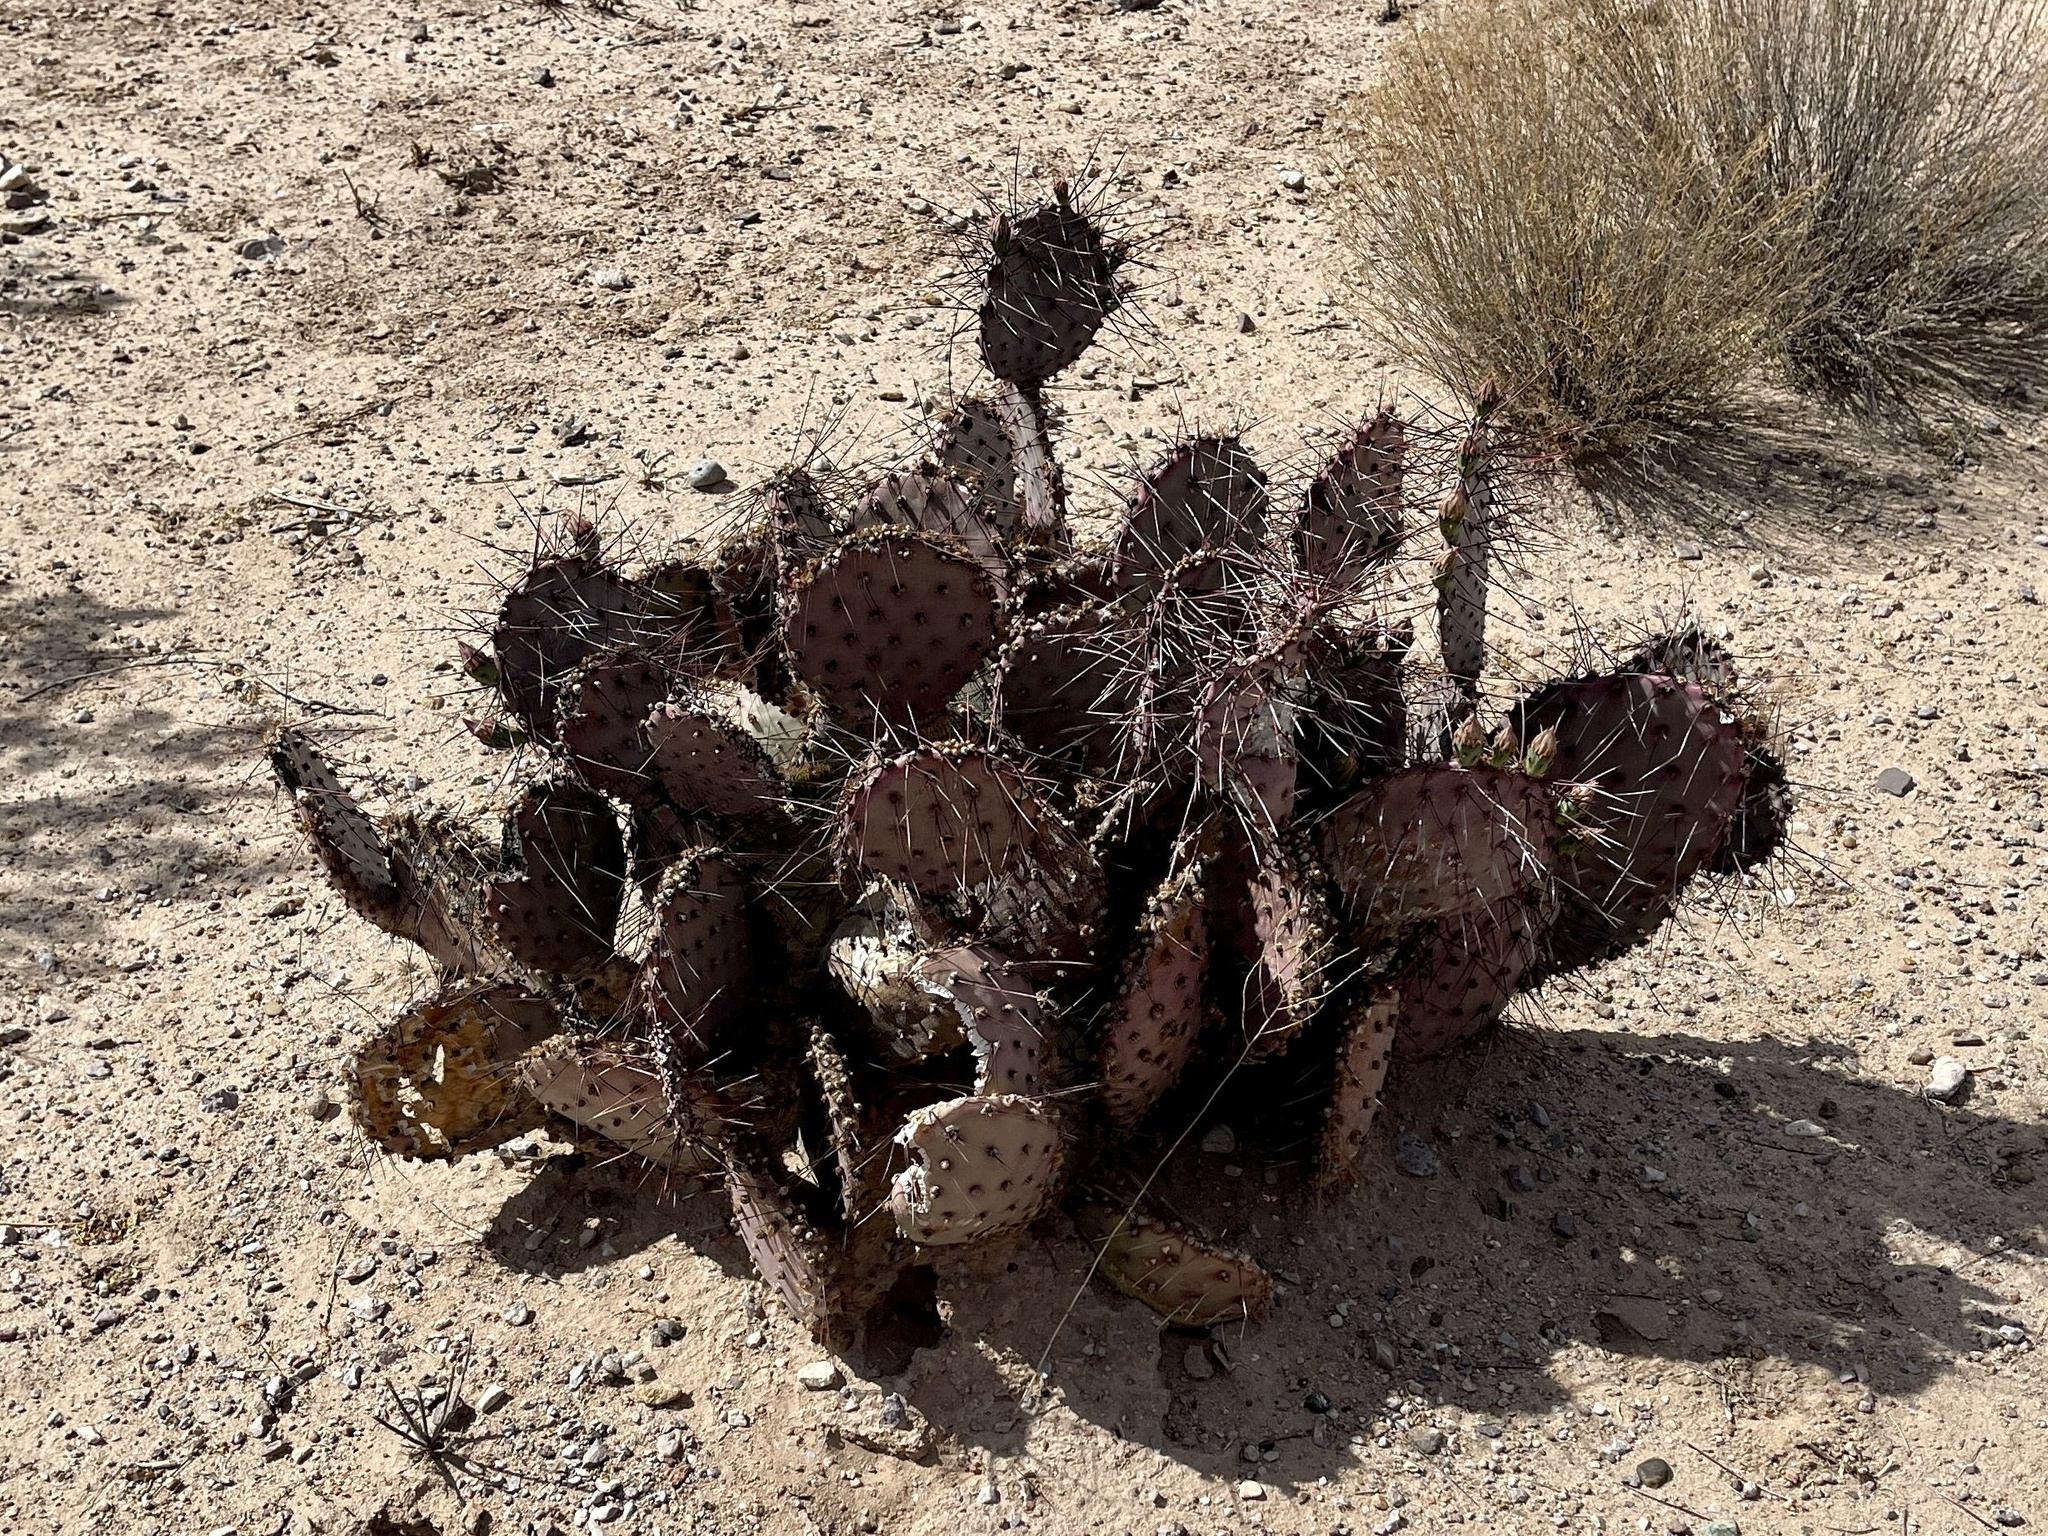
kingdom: Plantae
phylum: Tracheophyta
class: Magnoliopsida
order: Caryophyllales
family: Cactaceae
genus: Opuntia
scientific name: Opuntia macrocentra
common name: Purple prickly-pear
